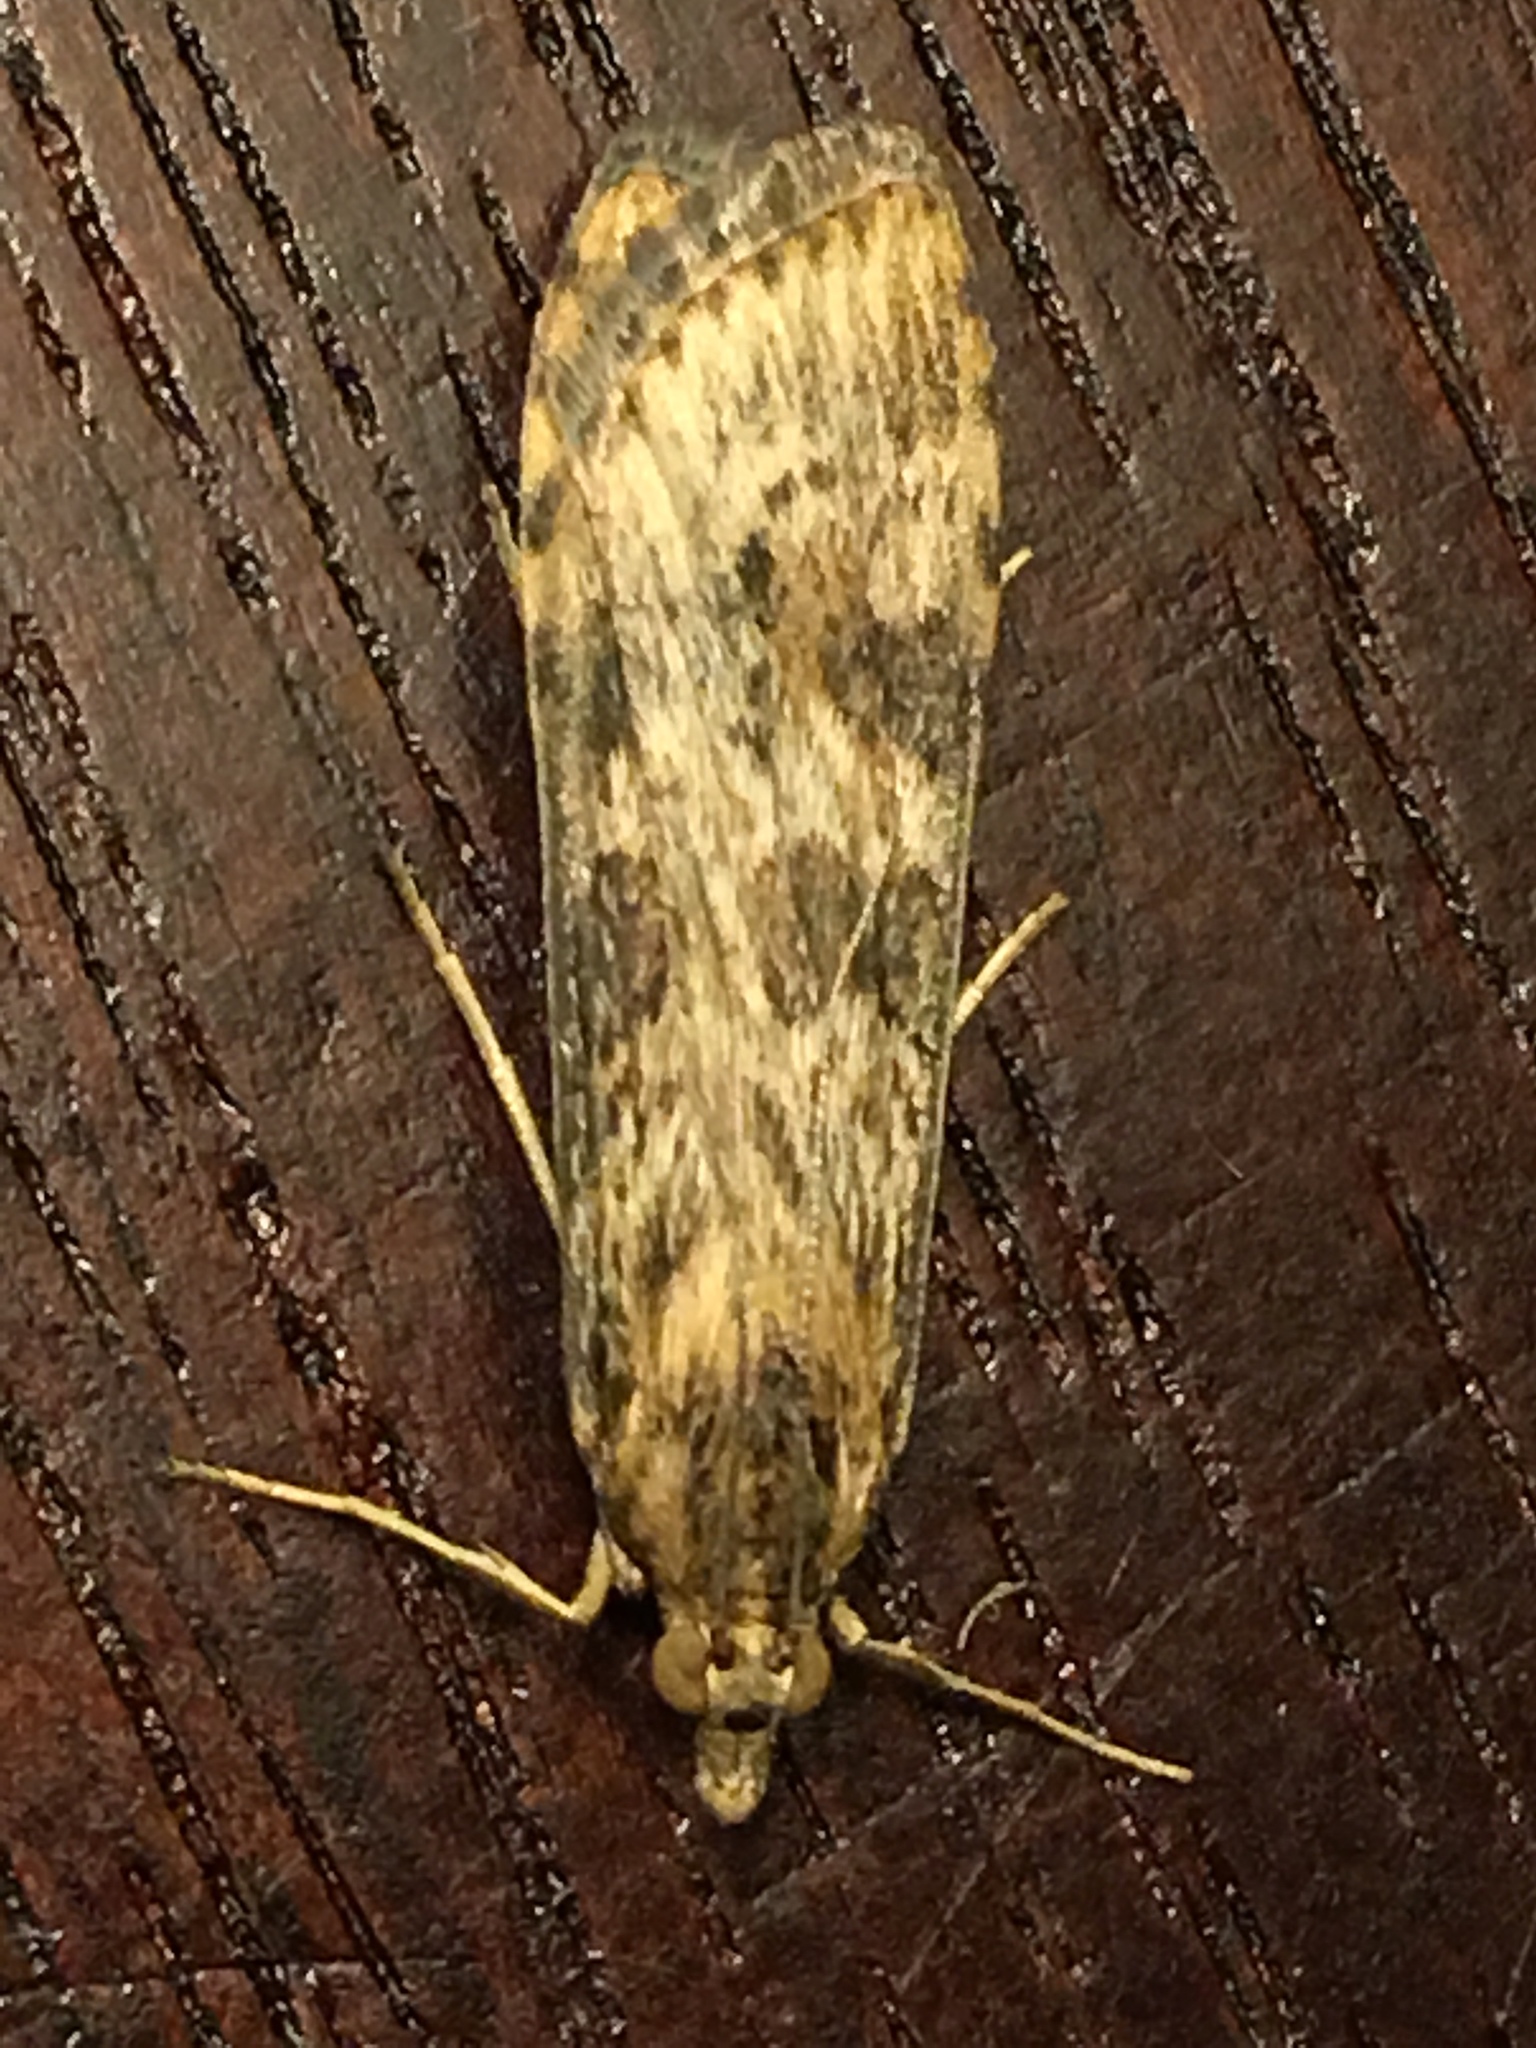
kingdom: Animalia
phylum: Arthropoda
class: Insecta
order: Lepidoptera
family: Crambidae
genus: Nomophila
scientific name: Nomophila nearctica
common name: American rush veneer
